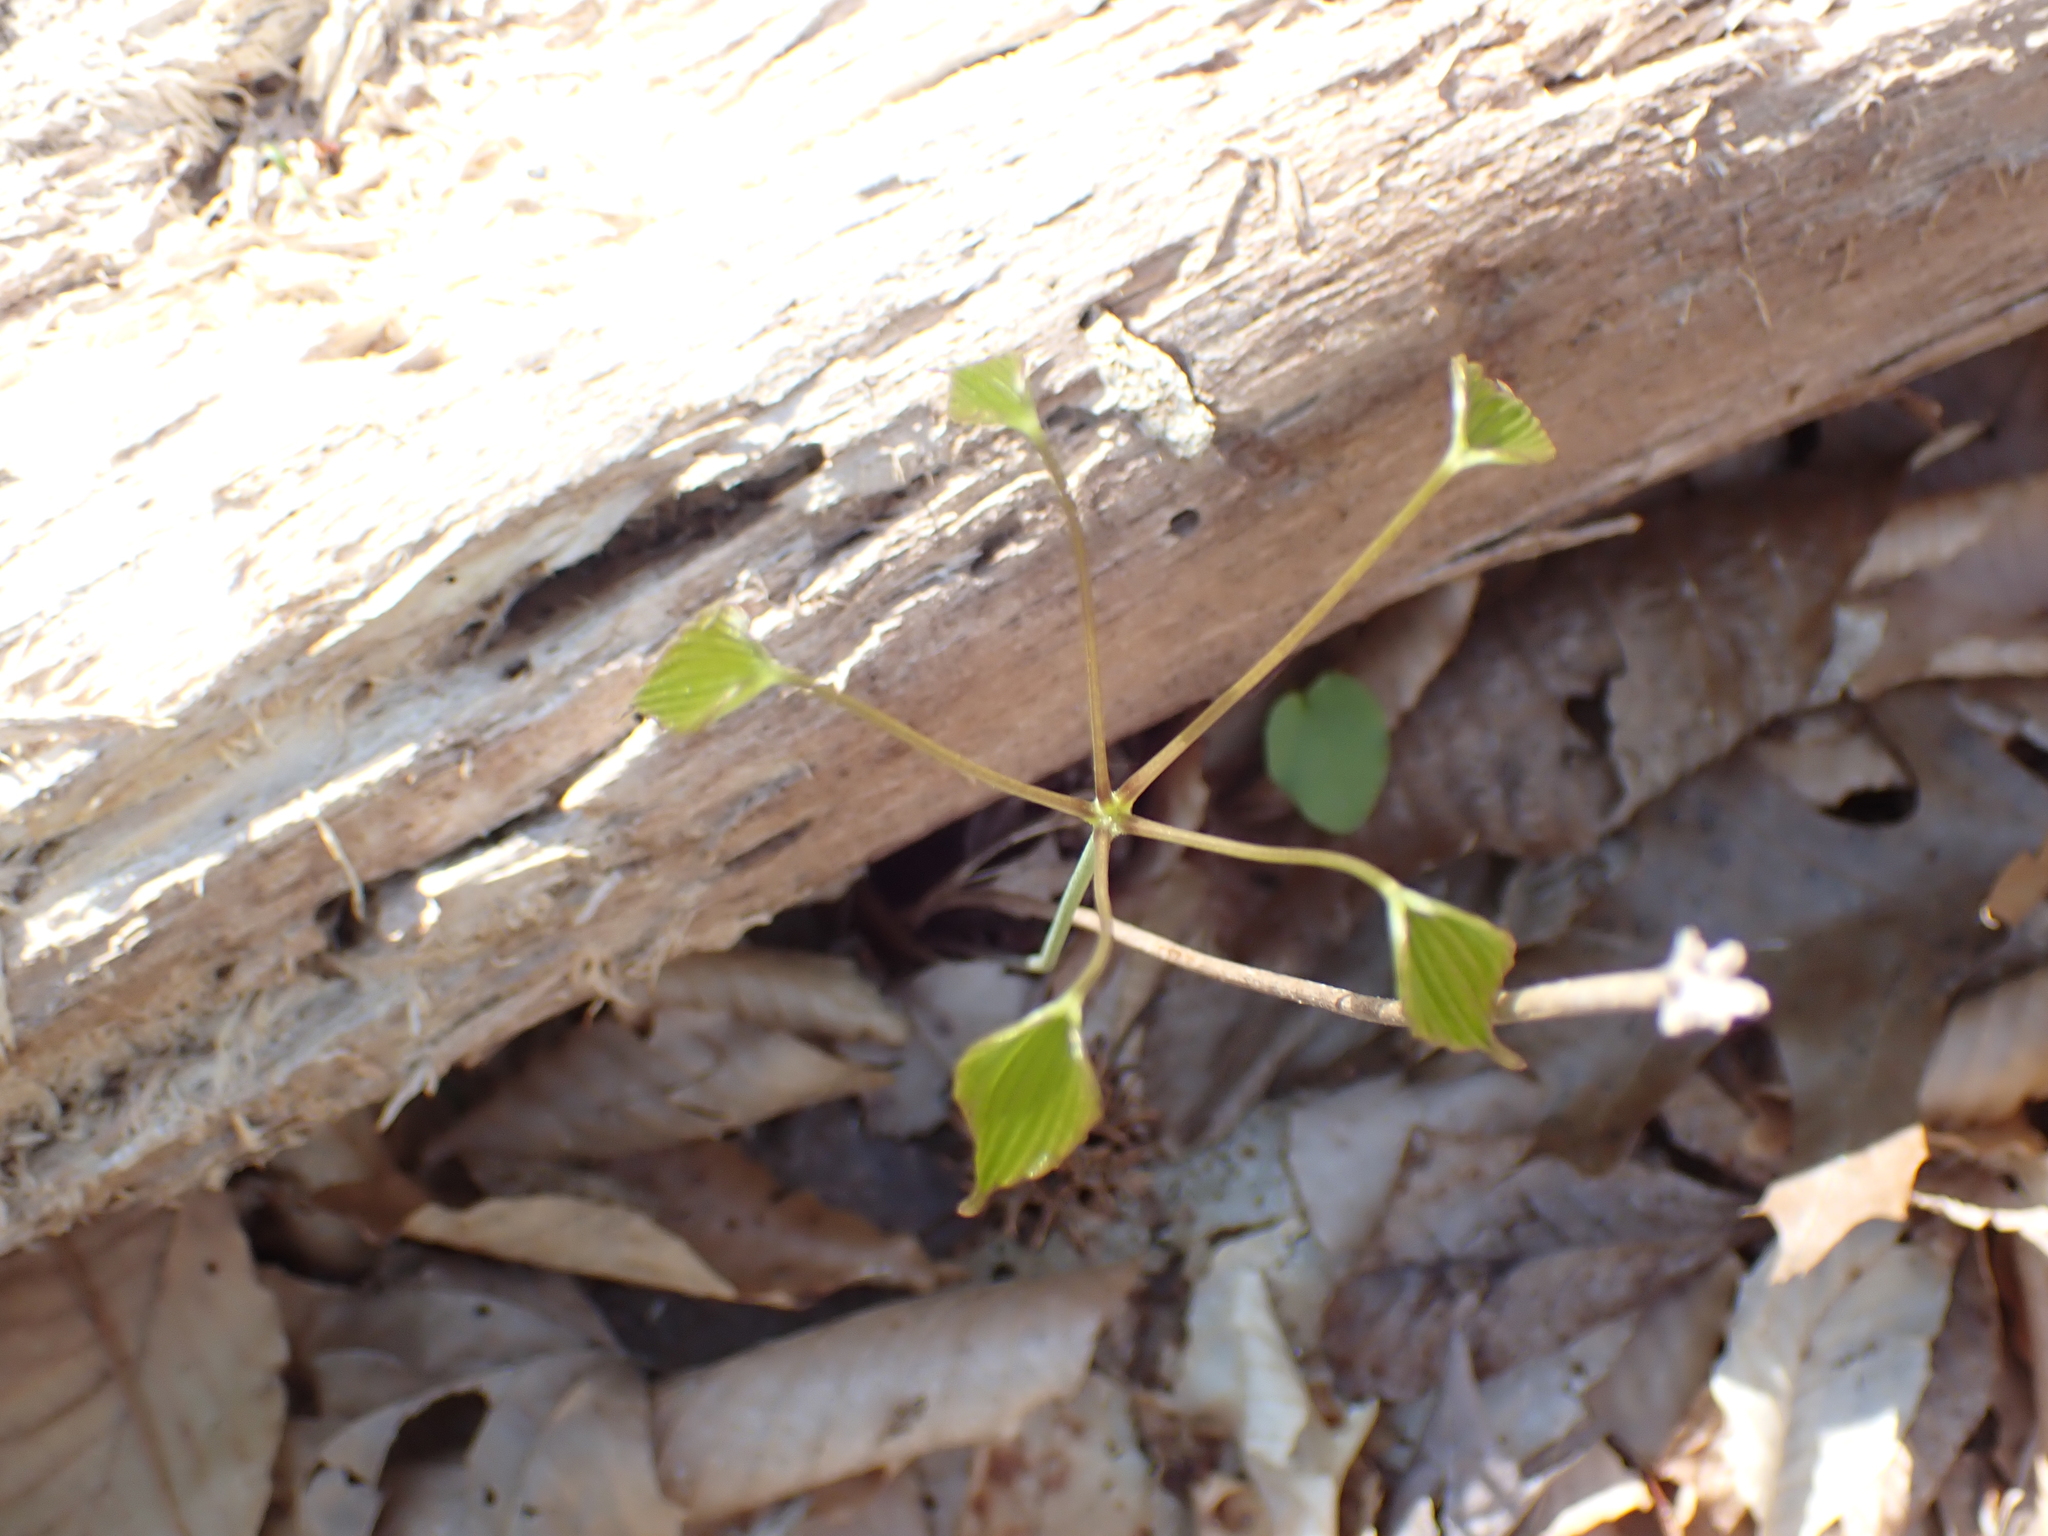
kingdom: Plantae
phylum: Tracheophyta
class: Liliopsida
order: Dioscoreales
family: Dioscoreaceae
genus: Dioscorea
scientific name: Dioscorea villosa
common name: Wild yam
